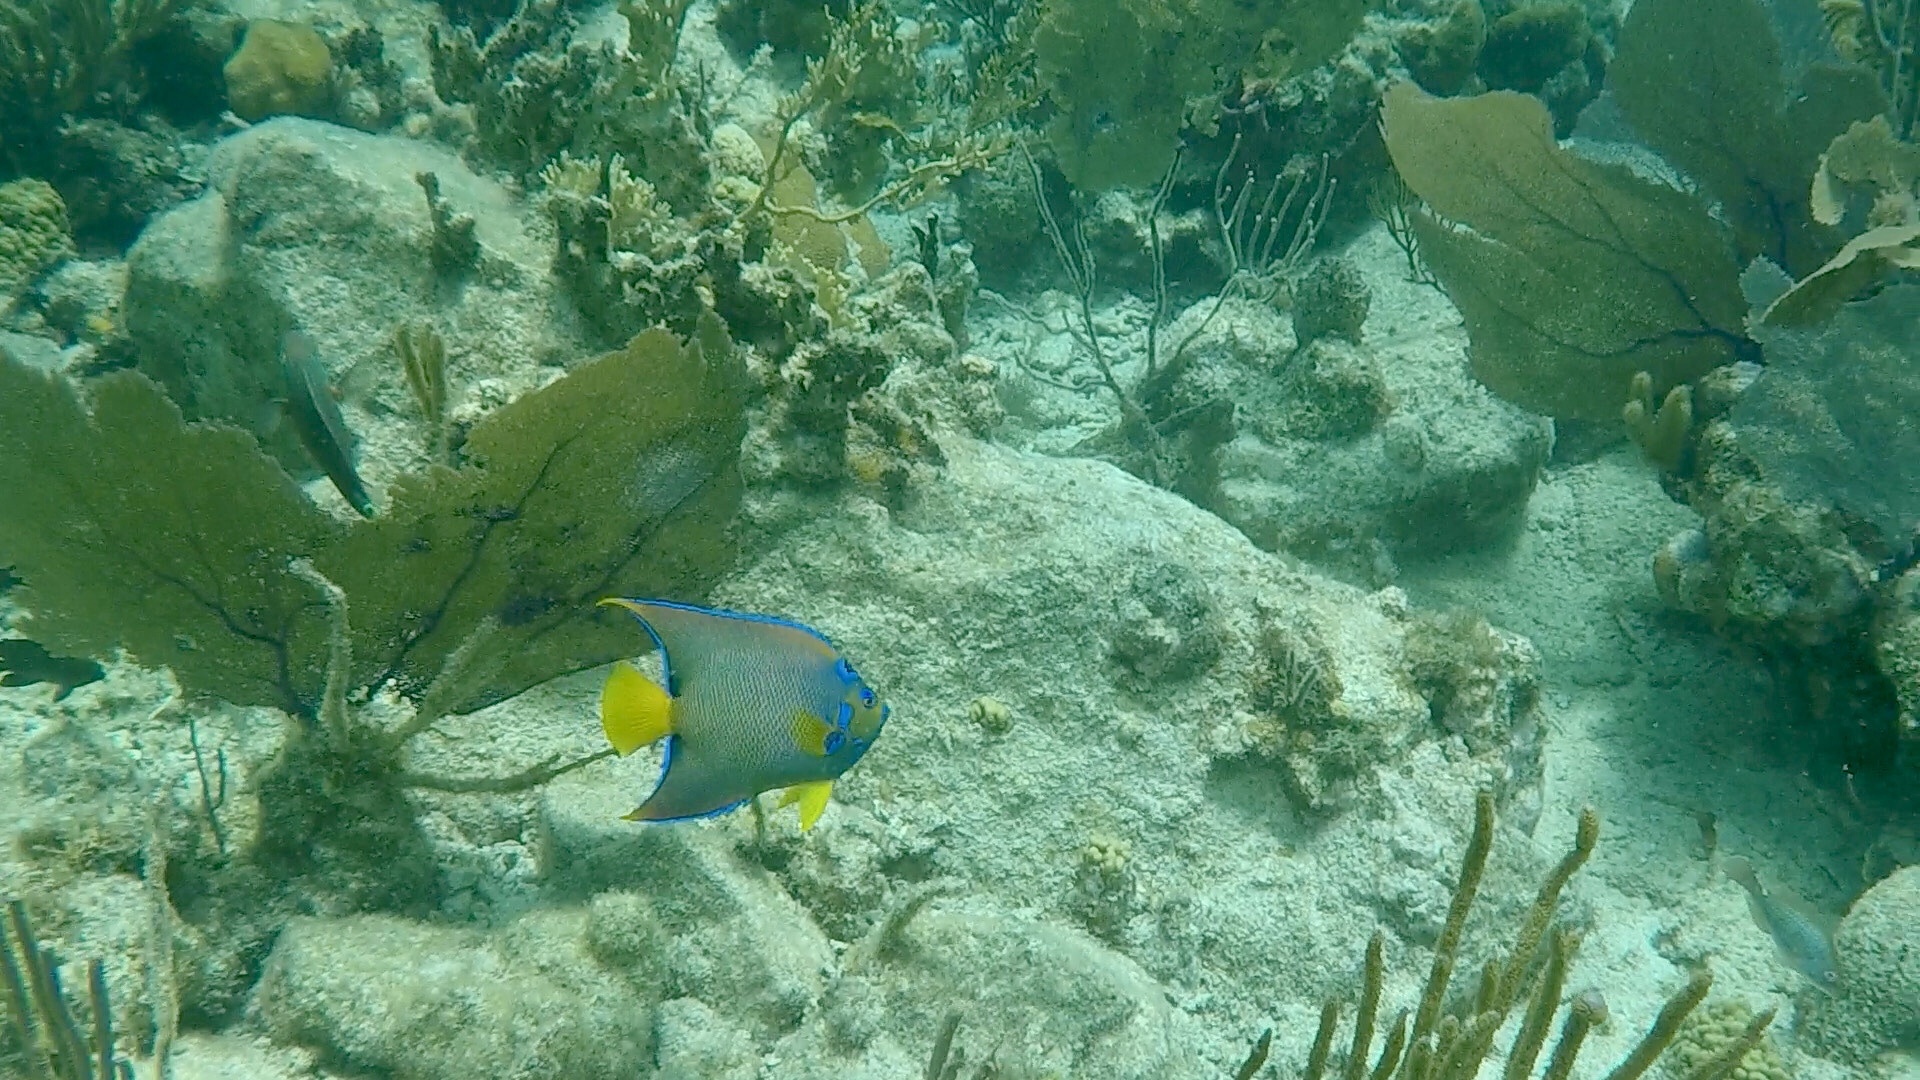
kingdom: Animalia
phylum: Chordata
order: Perciformes
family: Pomacanthidae
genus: Holacanthus
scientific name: Holacanthus ciliaris
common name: Queen angelfish
